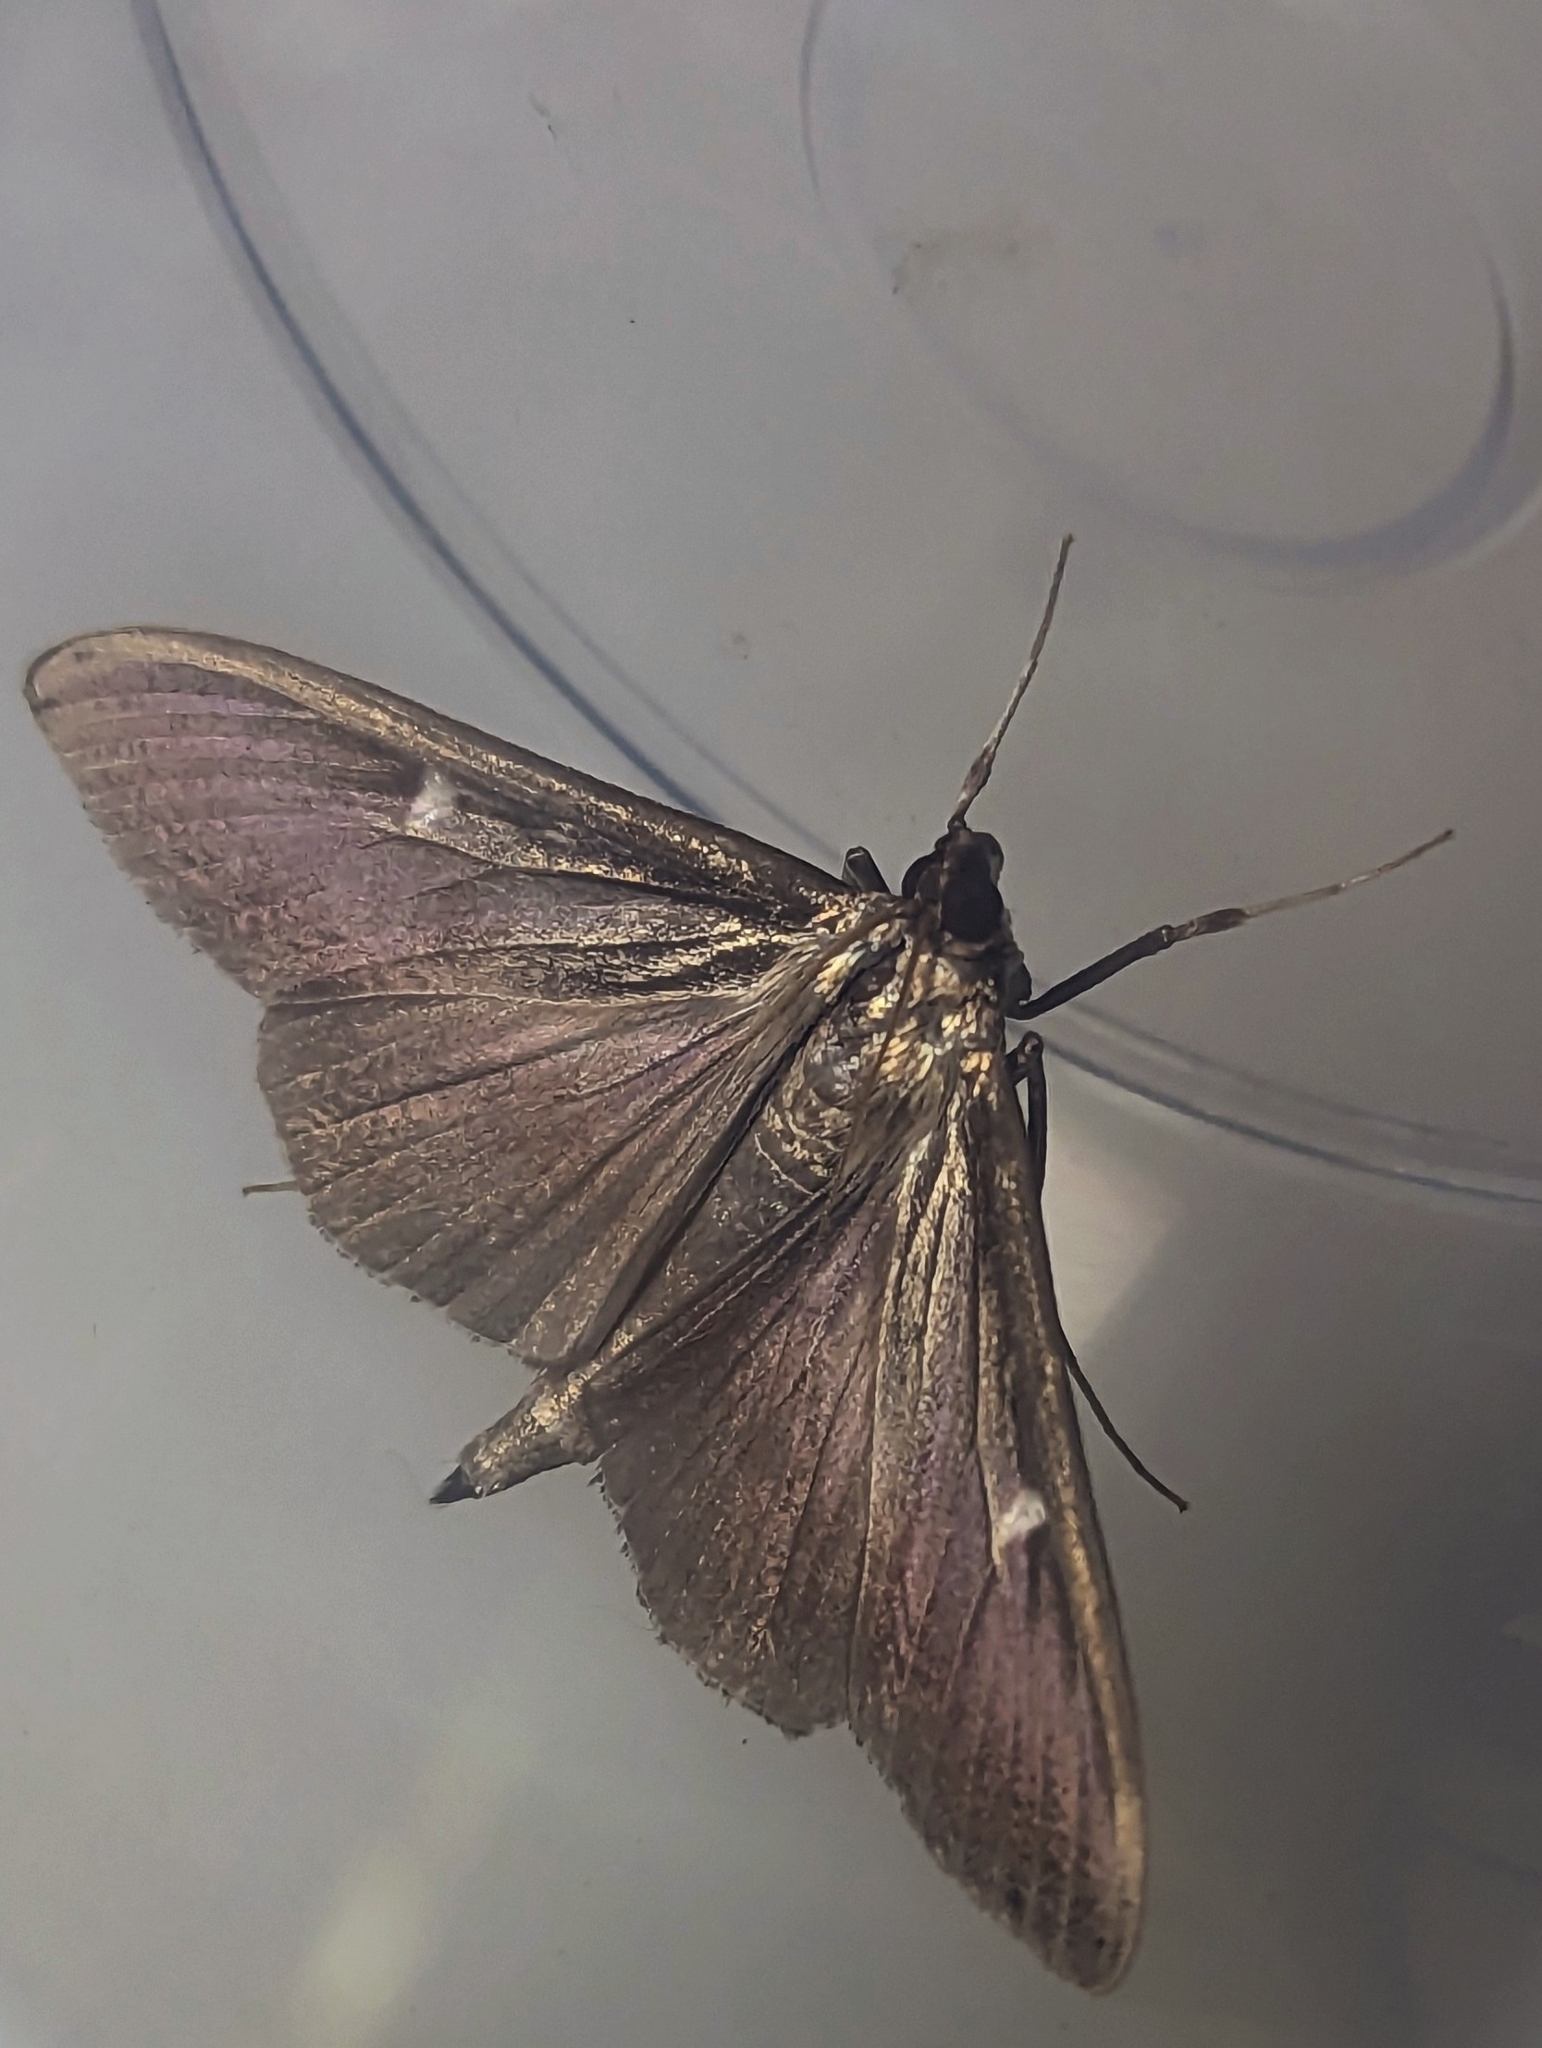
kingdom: Animalia
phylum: Arthropoda
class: Insecta
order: Lepidoptera
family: Crambidae
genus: Cydalima
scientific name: Cydalima perspectalis
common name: Box tree moth
